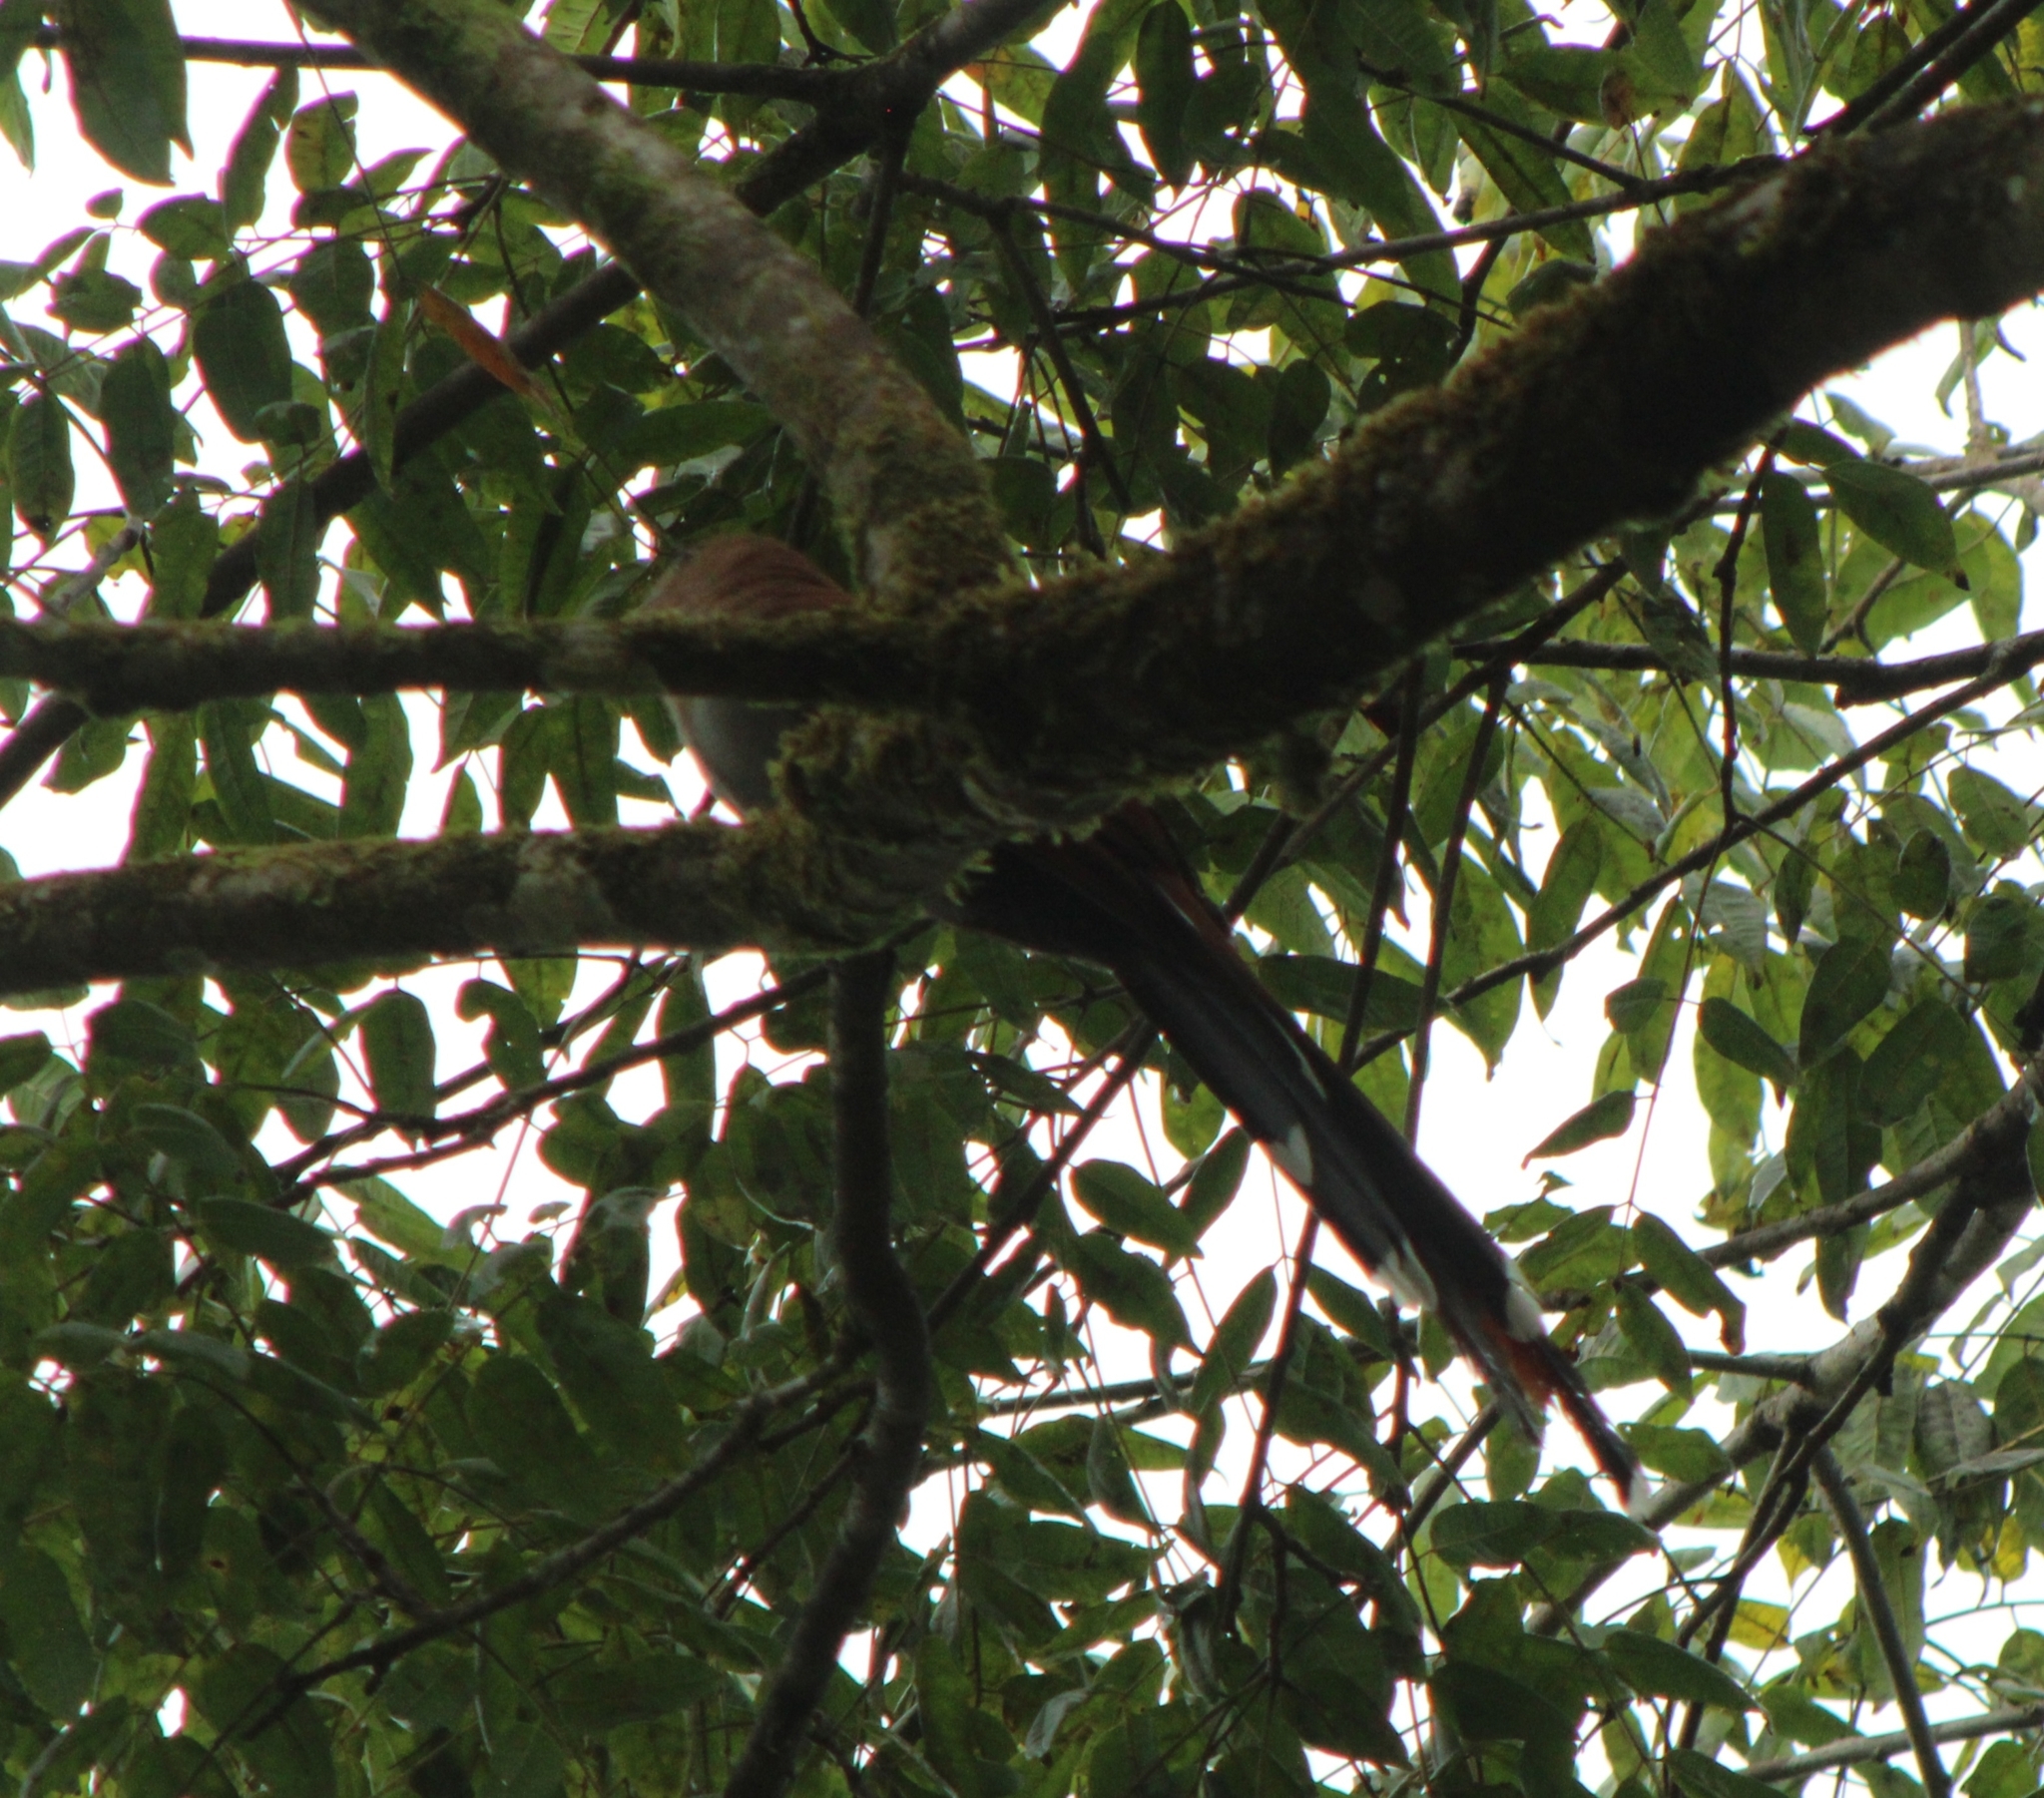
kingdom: Animalia
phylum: Chordata
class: Aves
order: Cuculiformes
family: Cuculidae
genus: Piaya
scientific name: Piaya cayana
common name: Squirrel cuckoo
